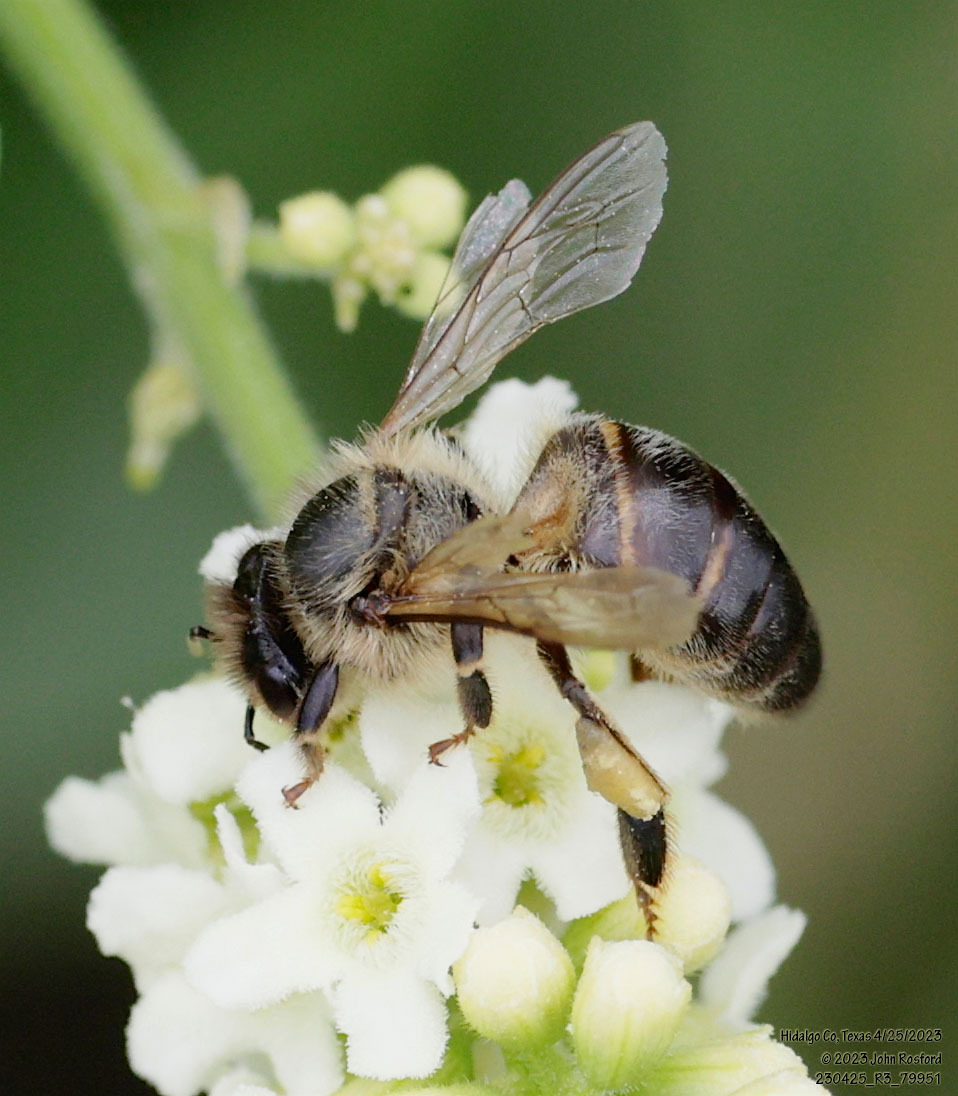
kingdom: Animalia
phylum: Arthropoda
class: Insecta
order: Hymenoptera
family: Apidae
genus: Apis
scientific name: Apis mellifera
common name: Honey bee
